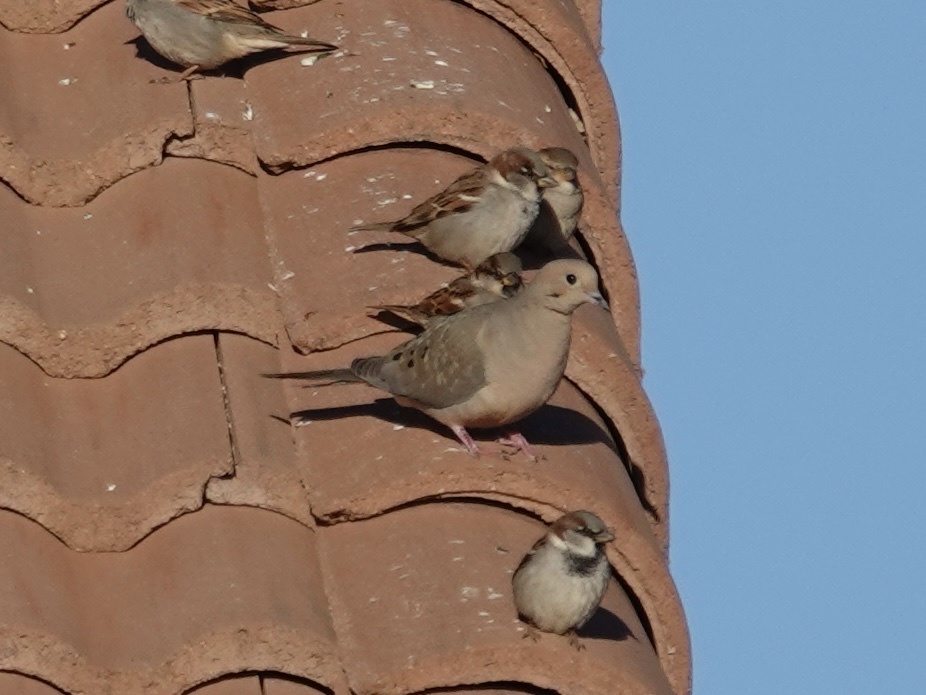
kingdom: Animalia
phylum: Chordata
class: Aves
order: Columbiformes
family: Columbidae
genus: Zenaida
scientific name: Zenaida macroura
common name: Mourning dove
